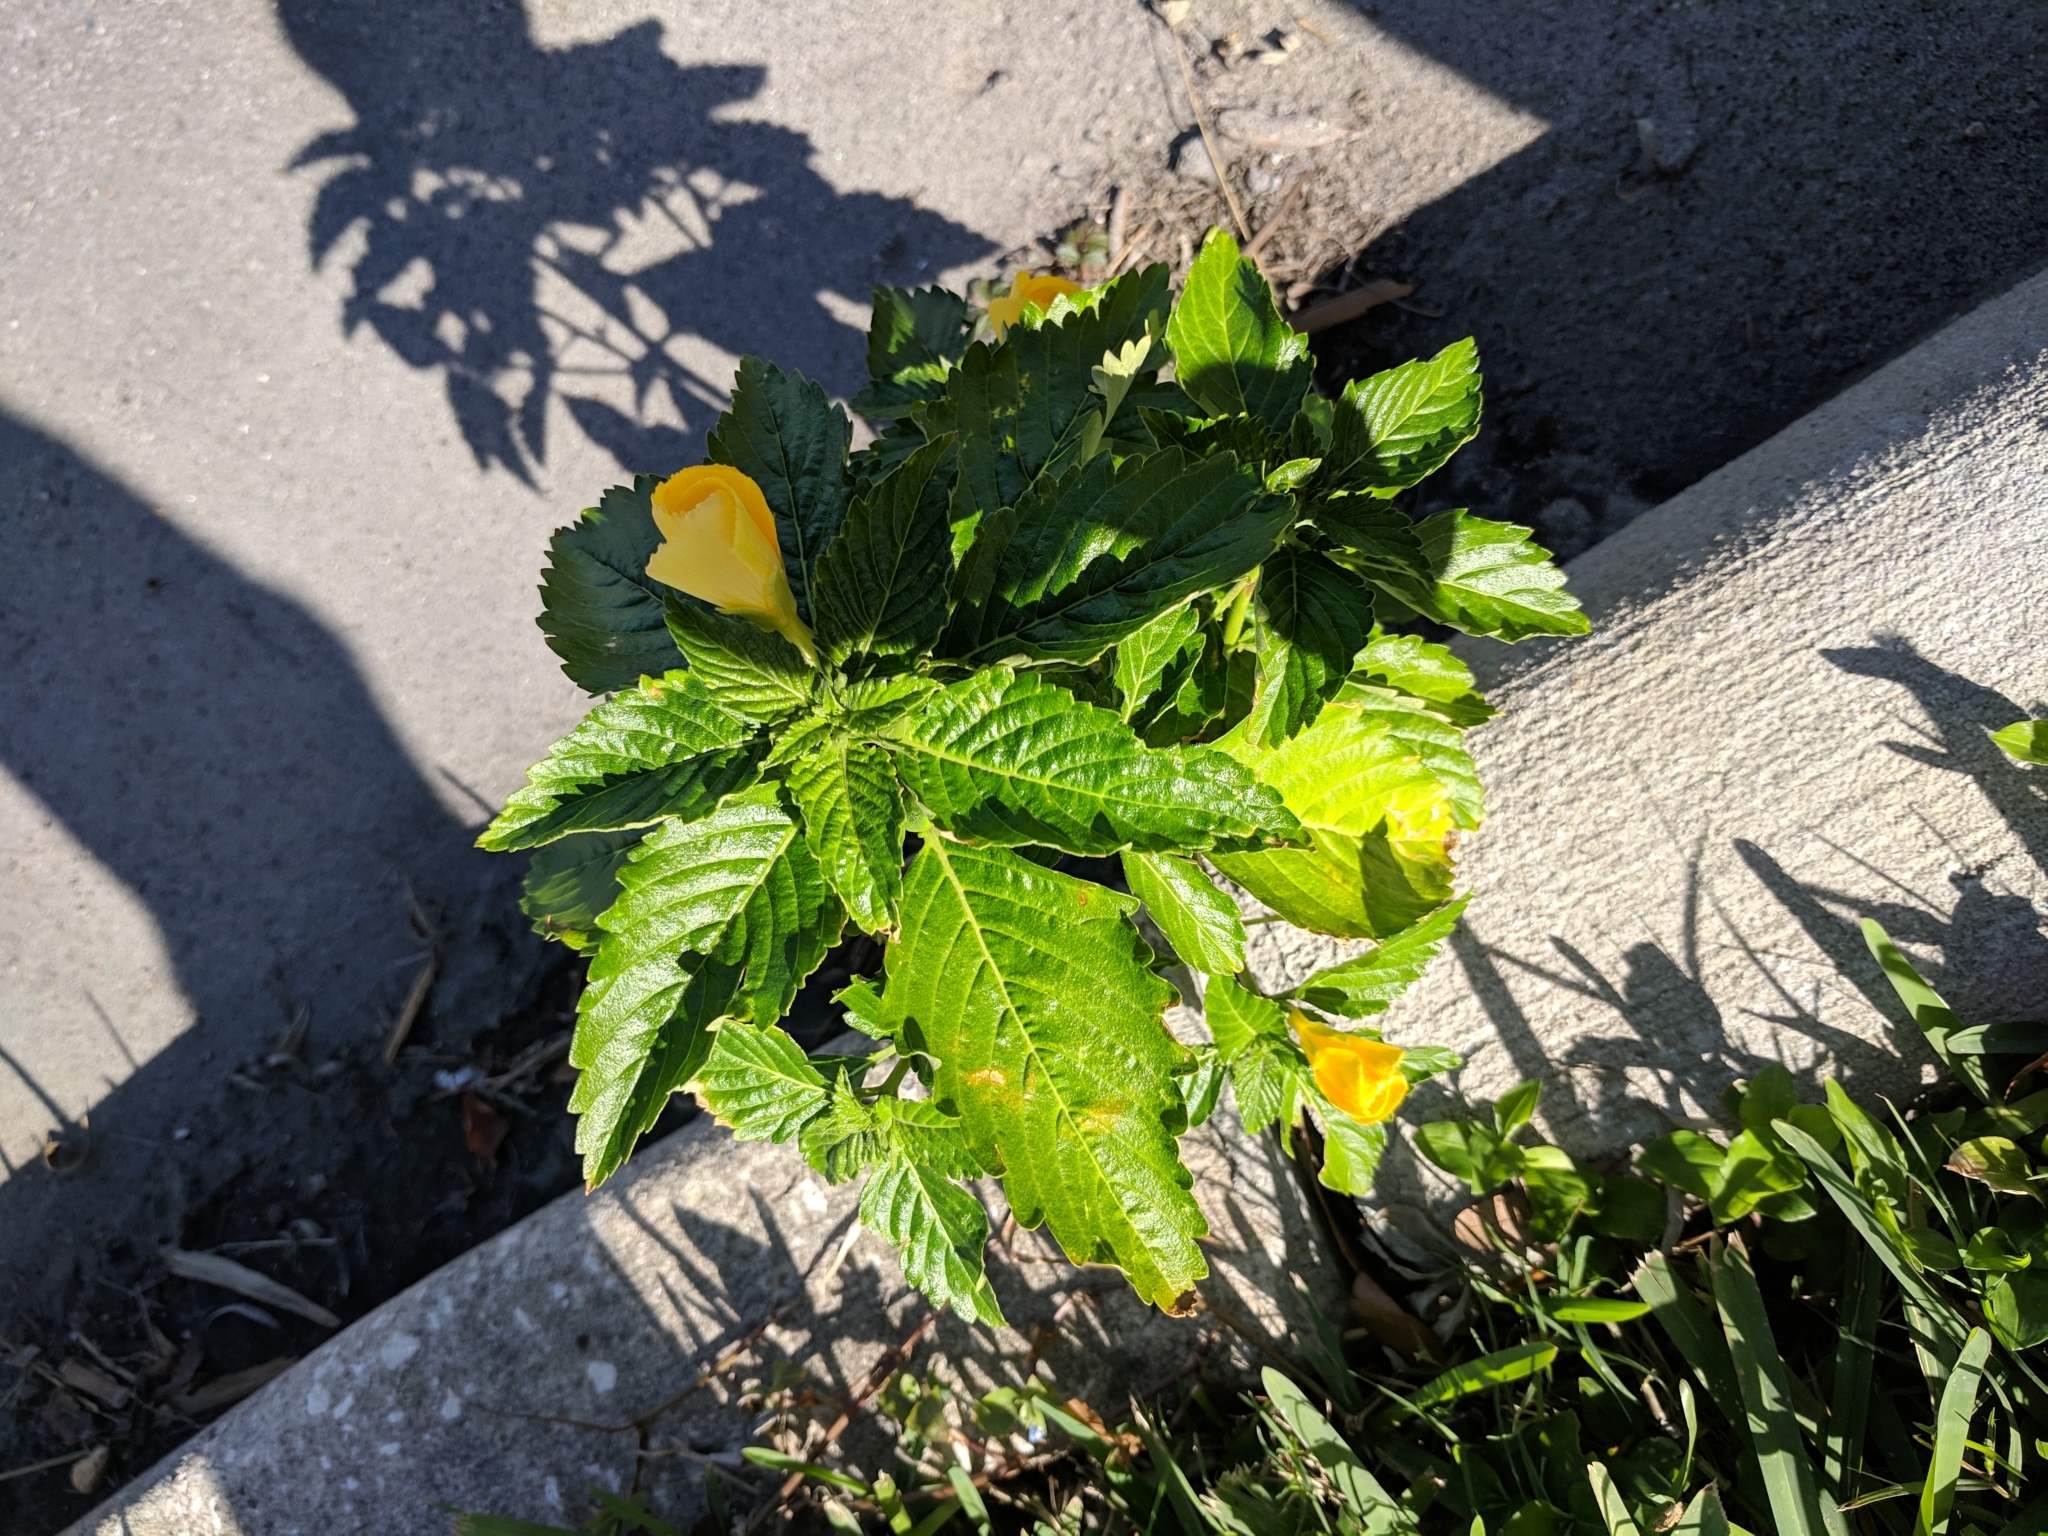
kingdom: Plantae
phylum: Tracheophyta
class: Magnoliopsida
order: Malpighiales
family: Turneraceae
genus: Turnera
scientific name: Turnera ulmifolia
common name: Ramgoat dashalong
